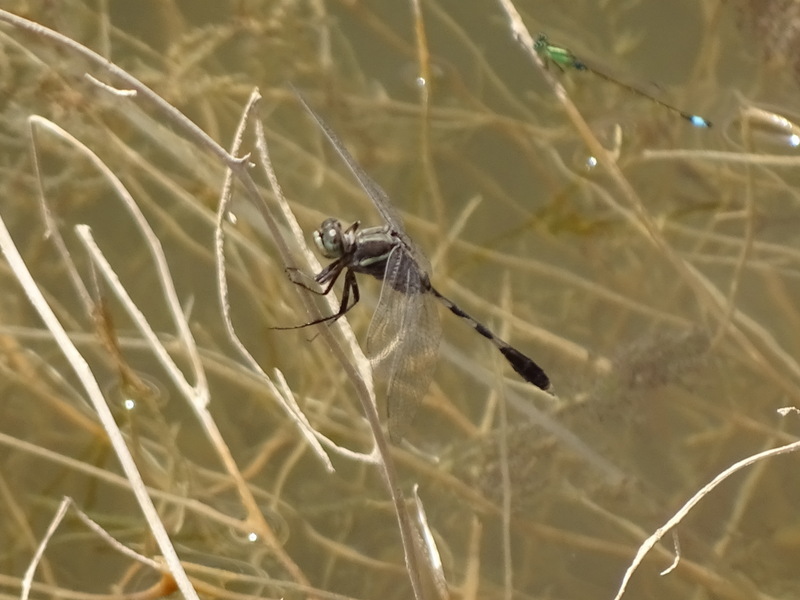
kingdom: Animalia
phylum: Arthropoda
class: Insecta
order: Odonata
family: Libellulidae
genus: Orthetrum
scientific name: Orthetrum sabina
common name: Slender skimmer
